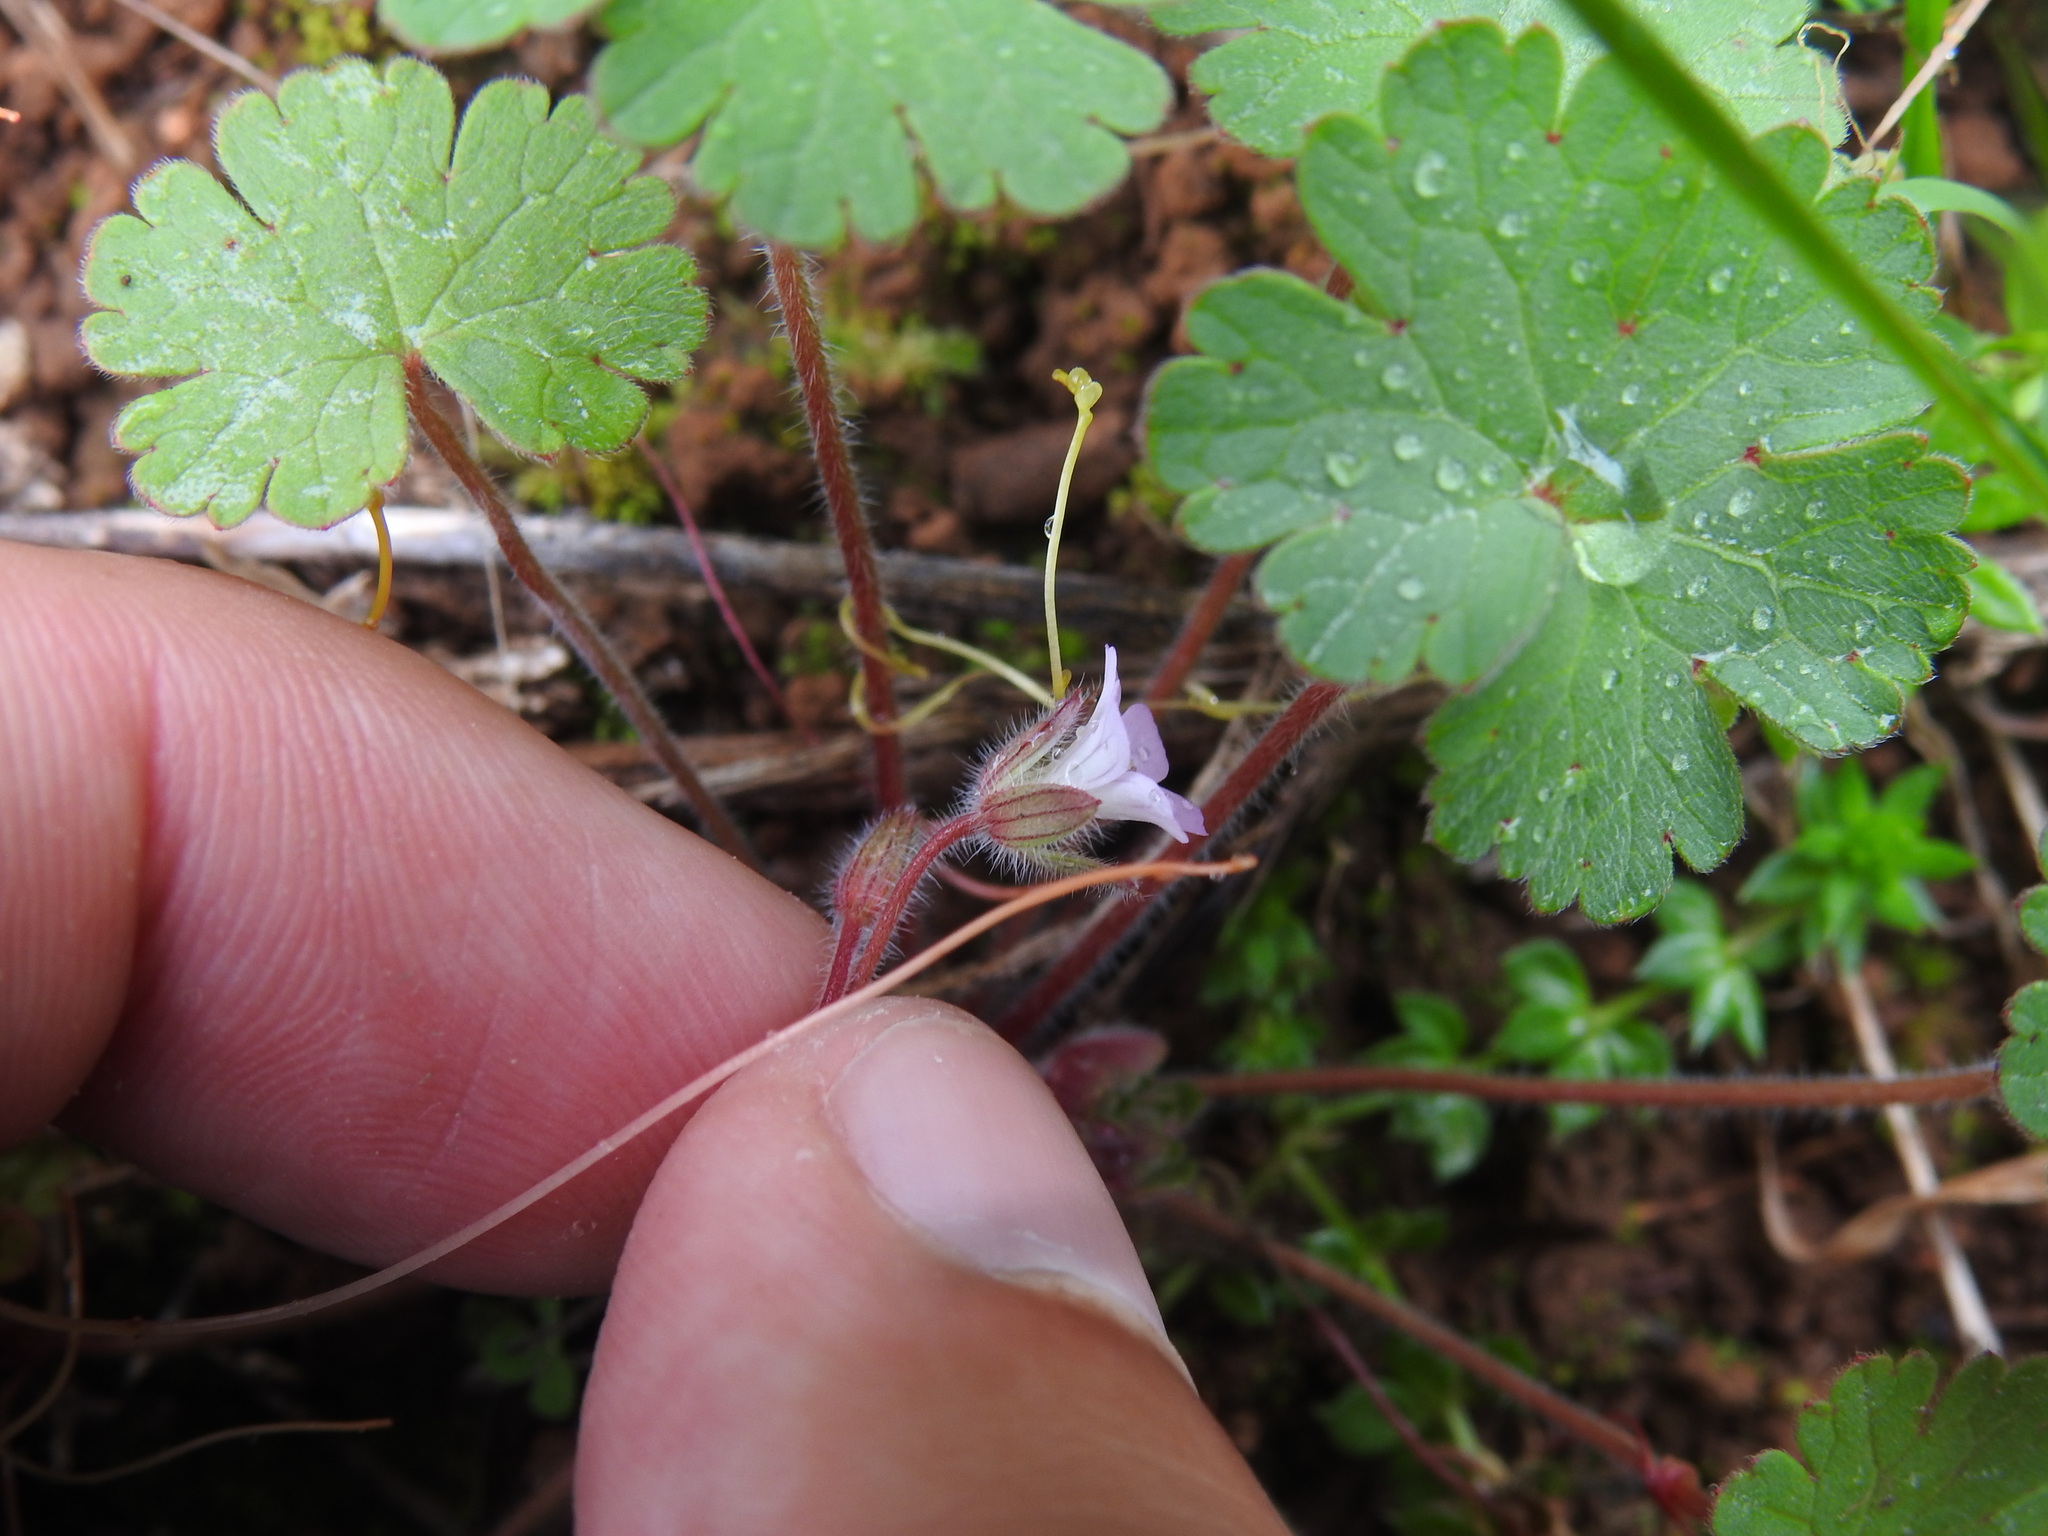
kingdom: Plantae
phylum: Tracheophyta
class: Magnoliopsida
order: Geraniales
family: Geraniaceae
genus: Geranium
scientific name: Geranium rotundifolium
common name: Round-leaved crane's-bill
